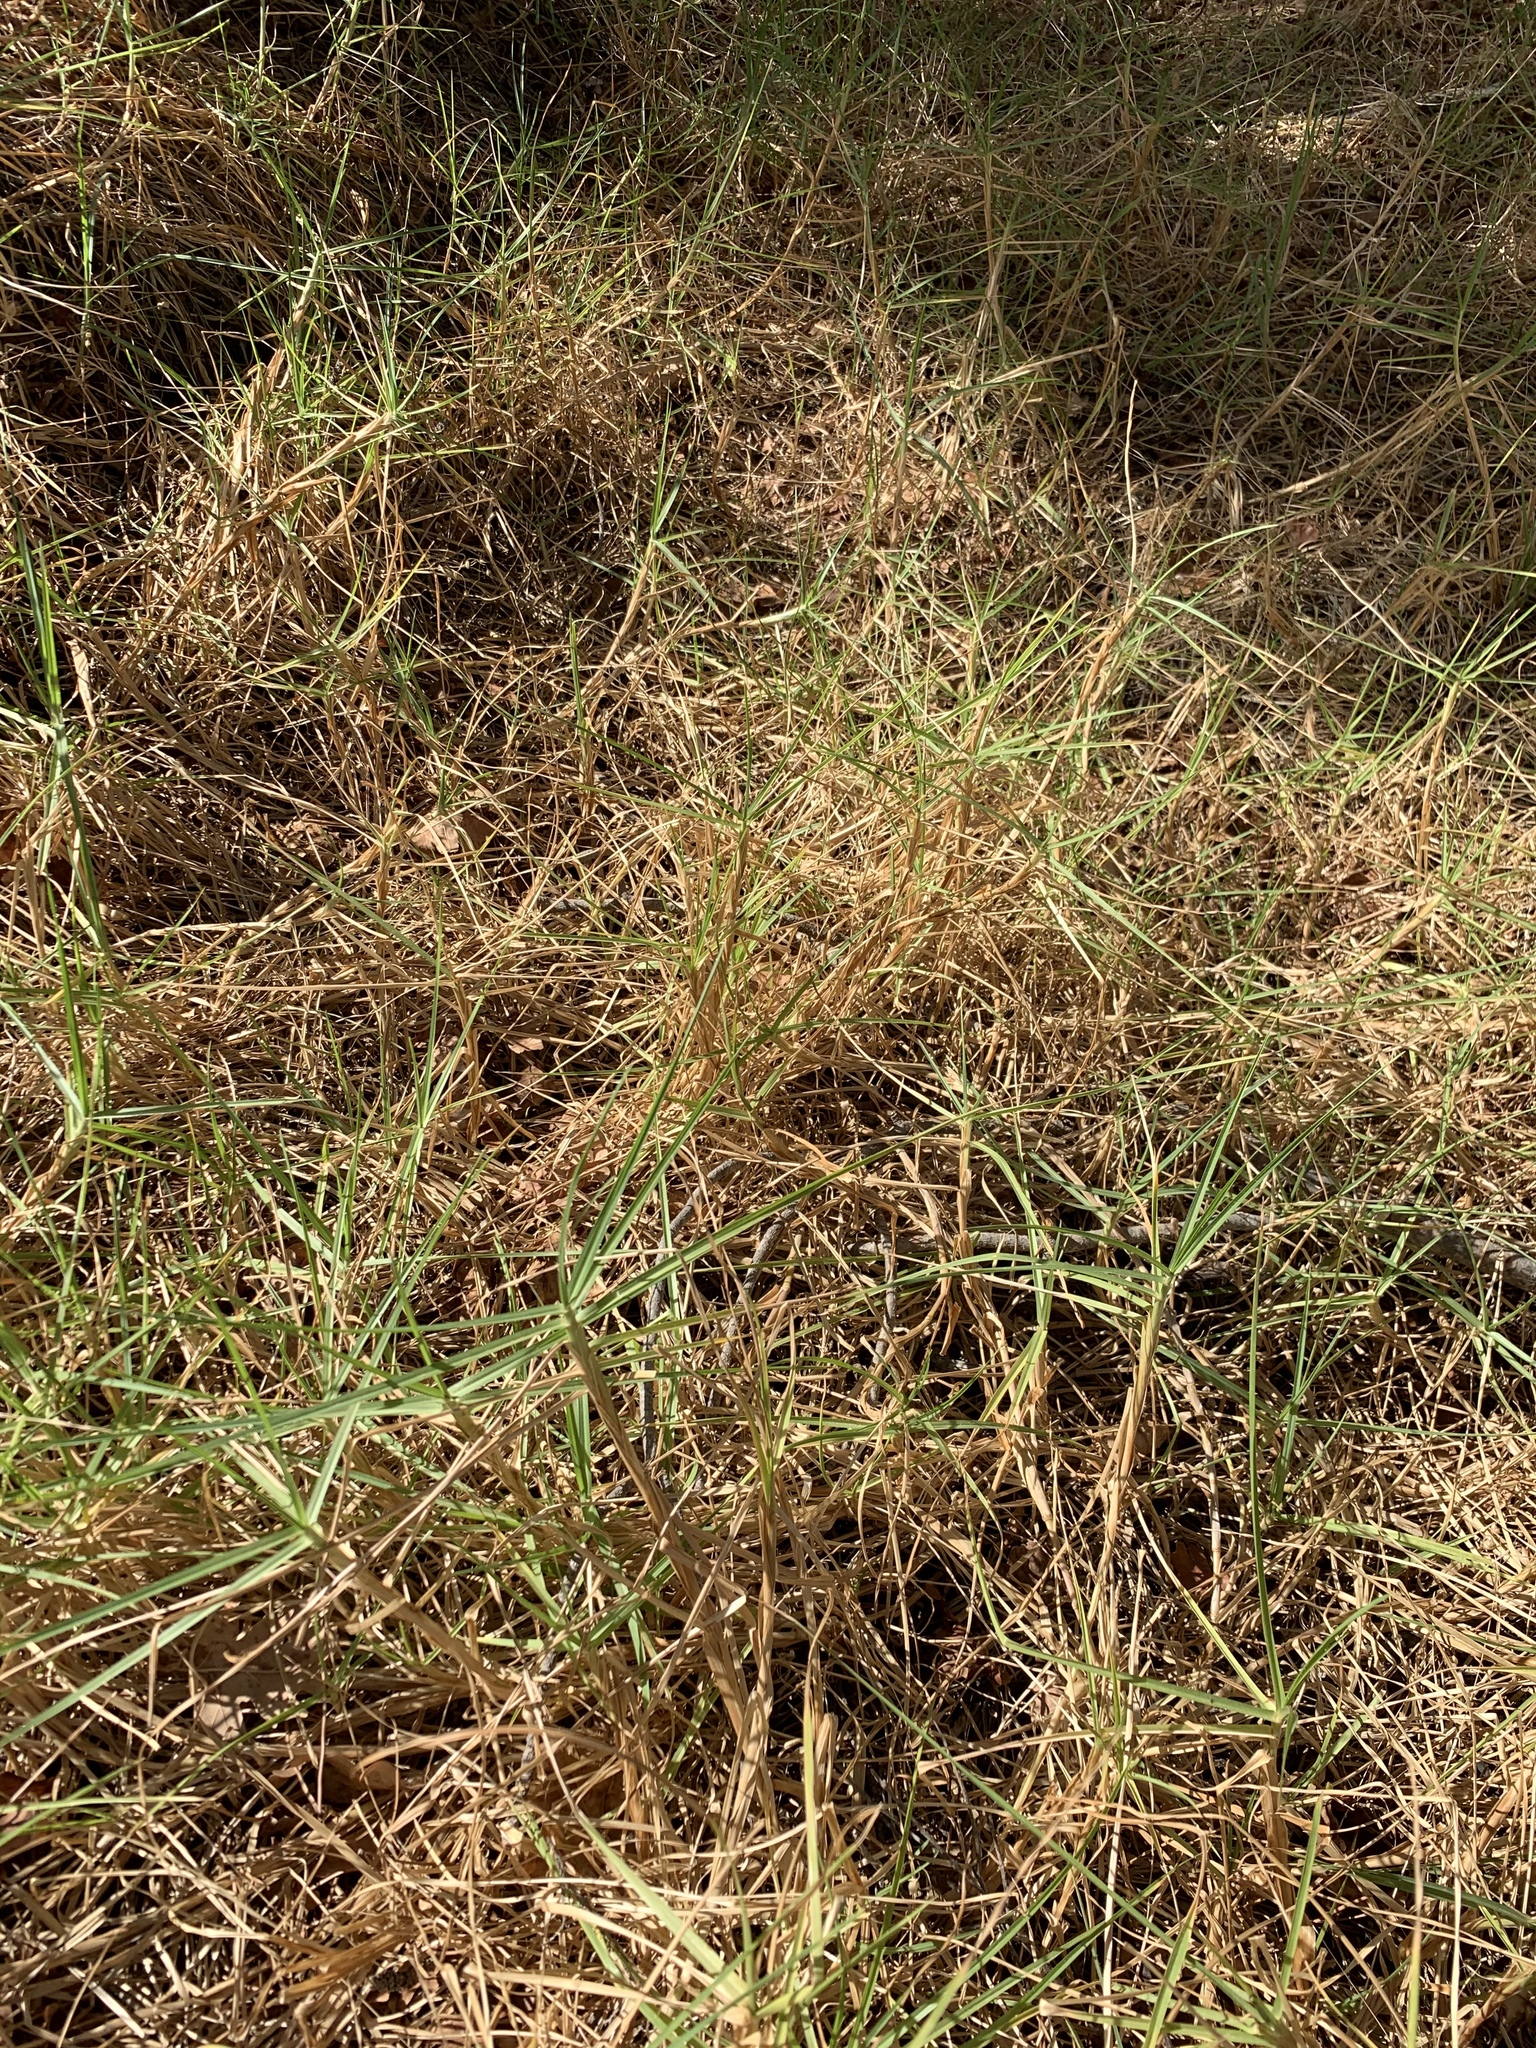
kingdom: Plantae
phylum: Tracheophyta
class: Liliopsida
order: Poales
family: Poaceae
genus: Cenchrus
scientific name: Cenchrus clandestinus
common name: Kikuyugrass
